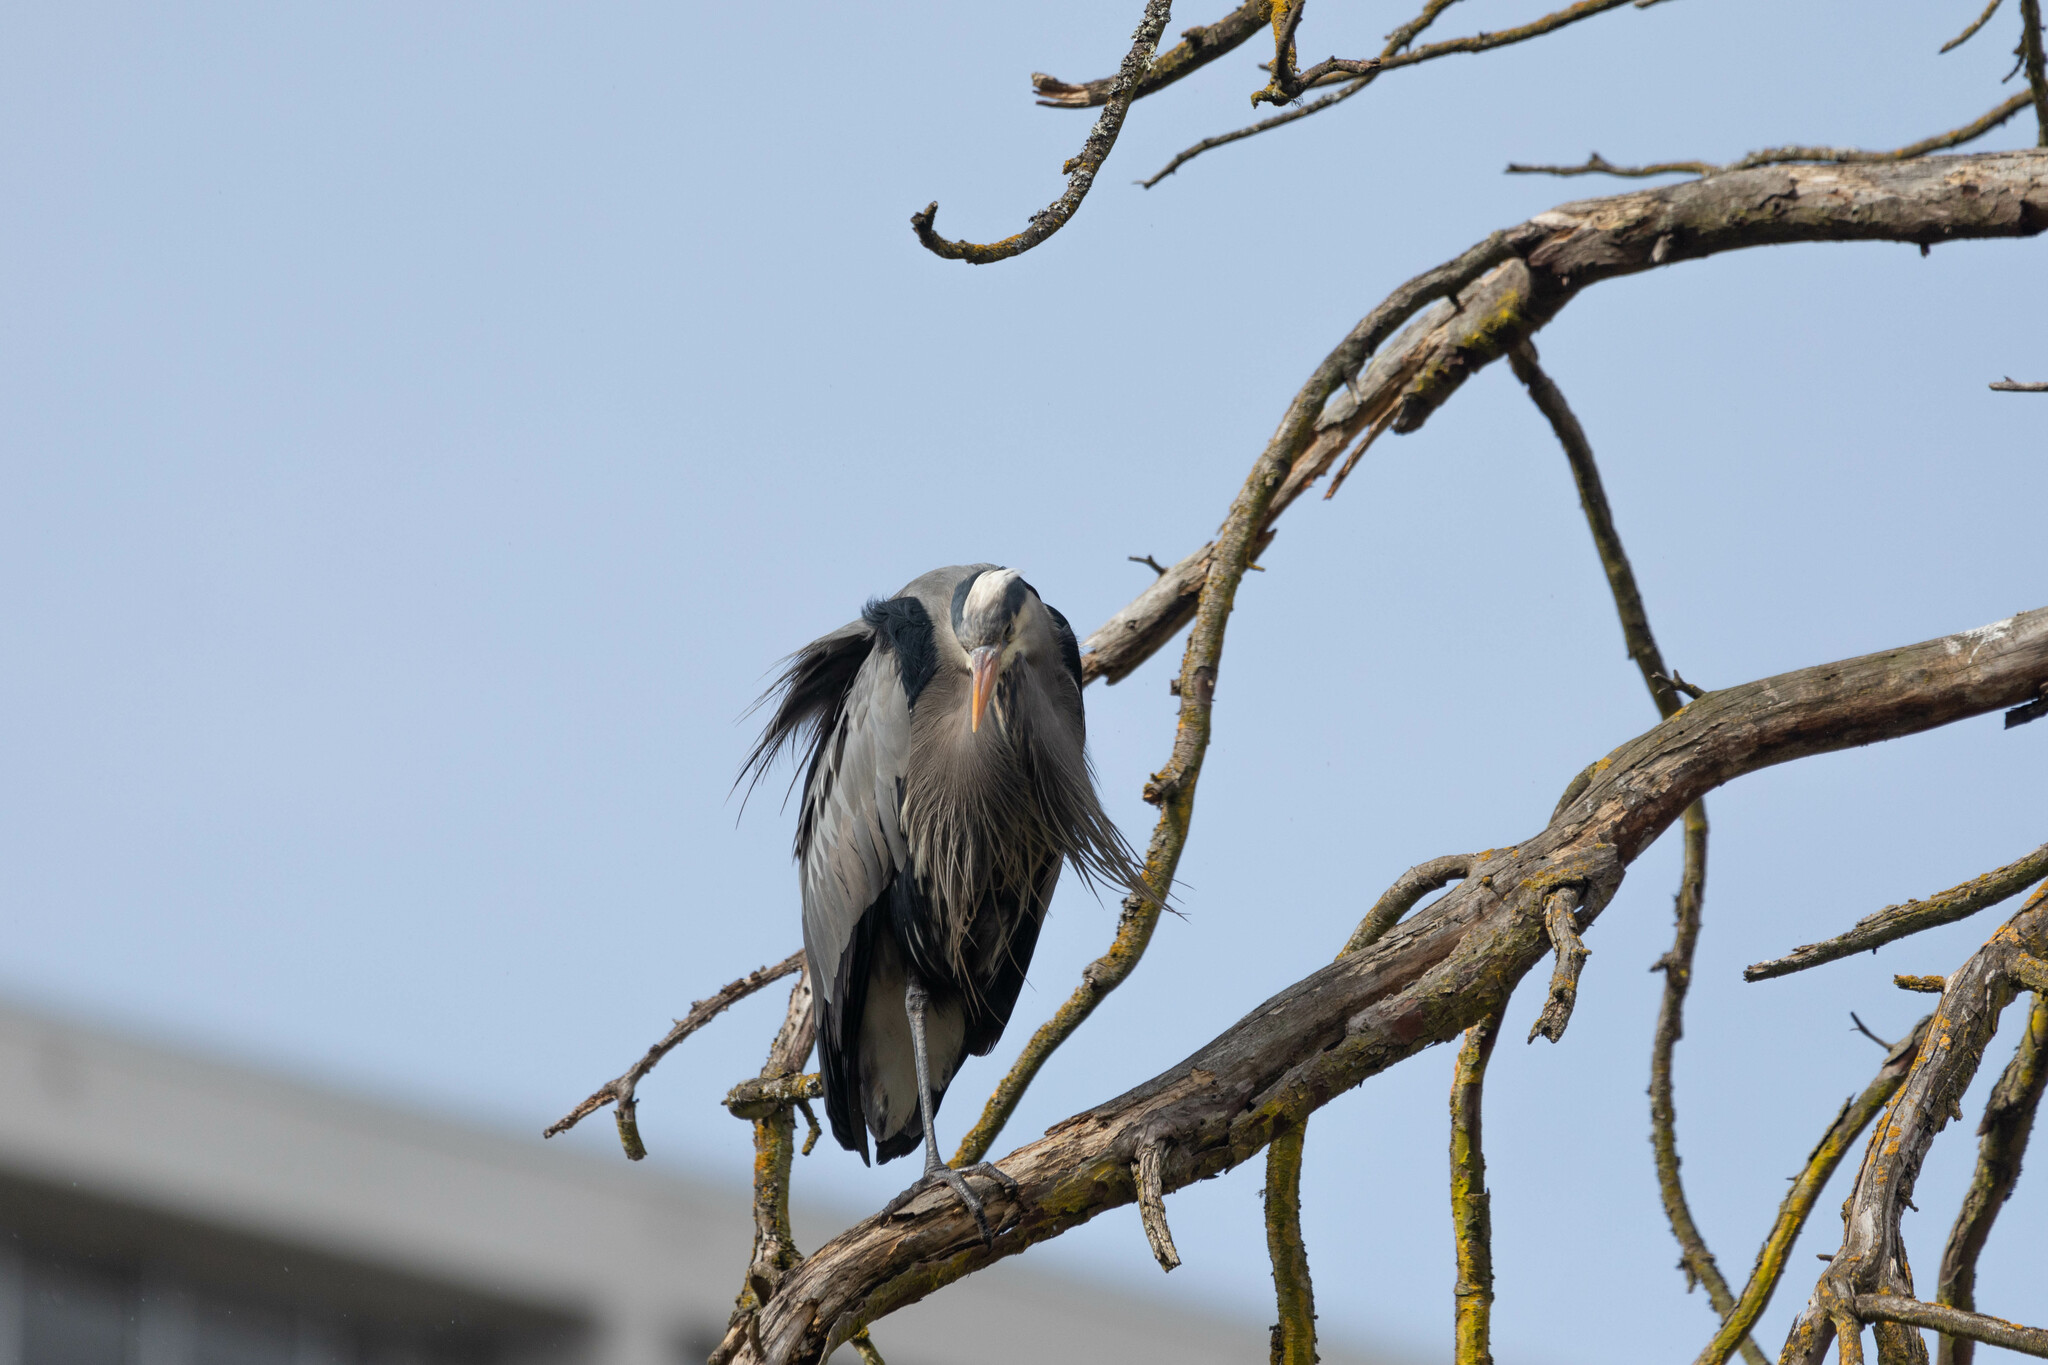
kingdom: Animalia
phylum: Chordata
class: Aves
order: Pelecaniformes
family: Ardeidae
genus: Ardea
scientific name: Ardea herodias
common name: Great blue heron
